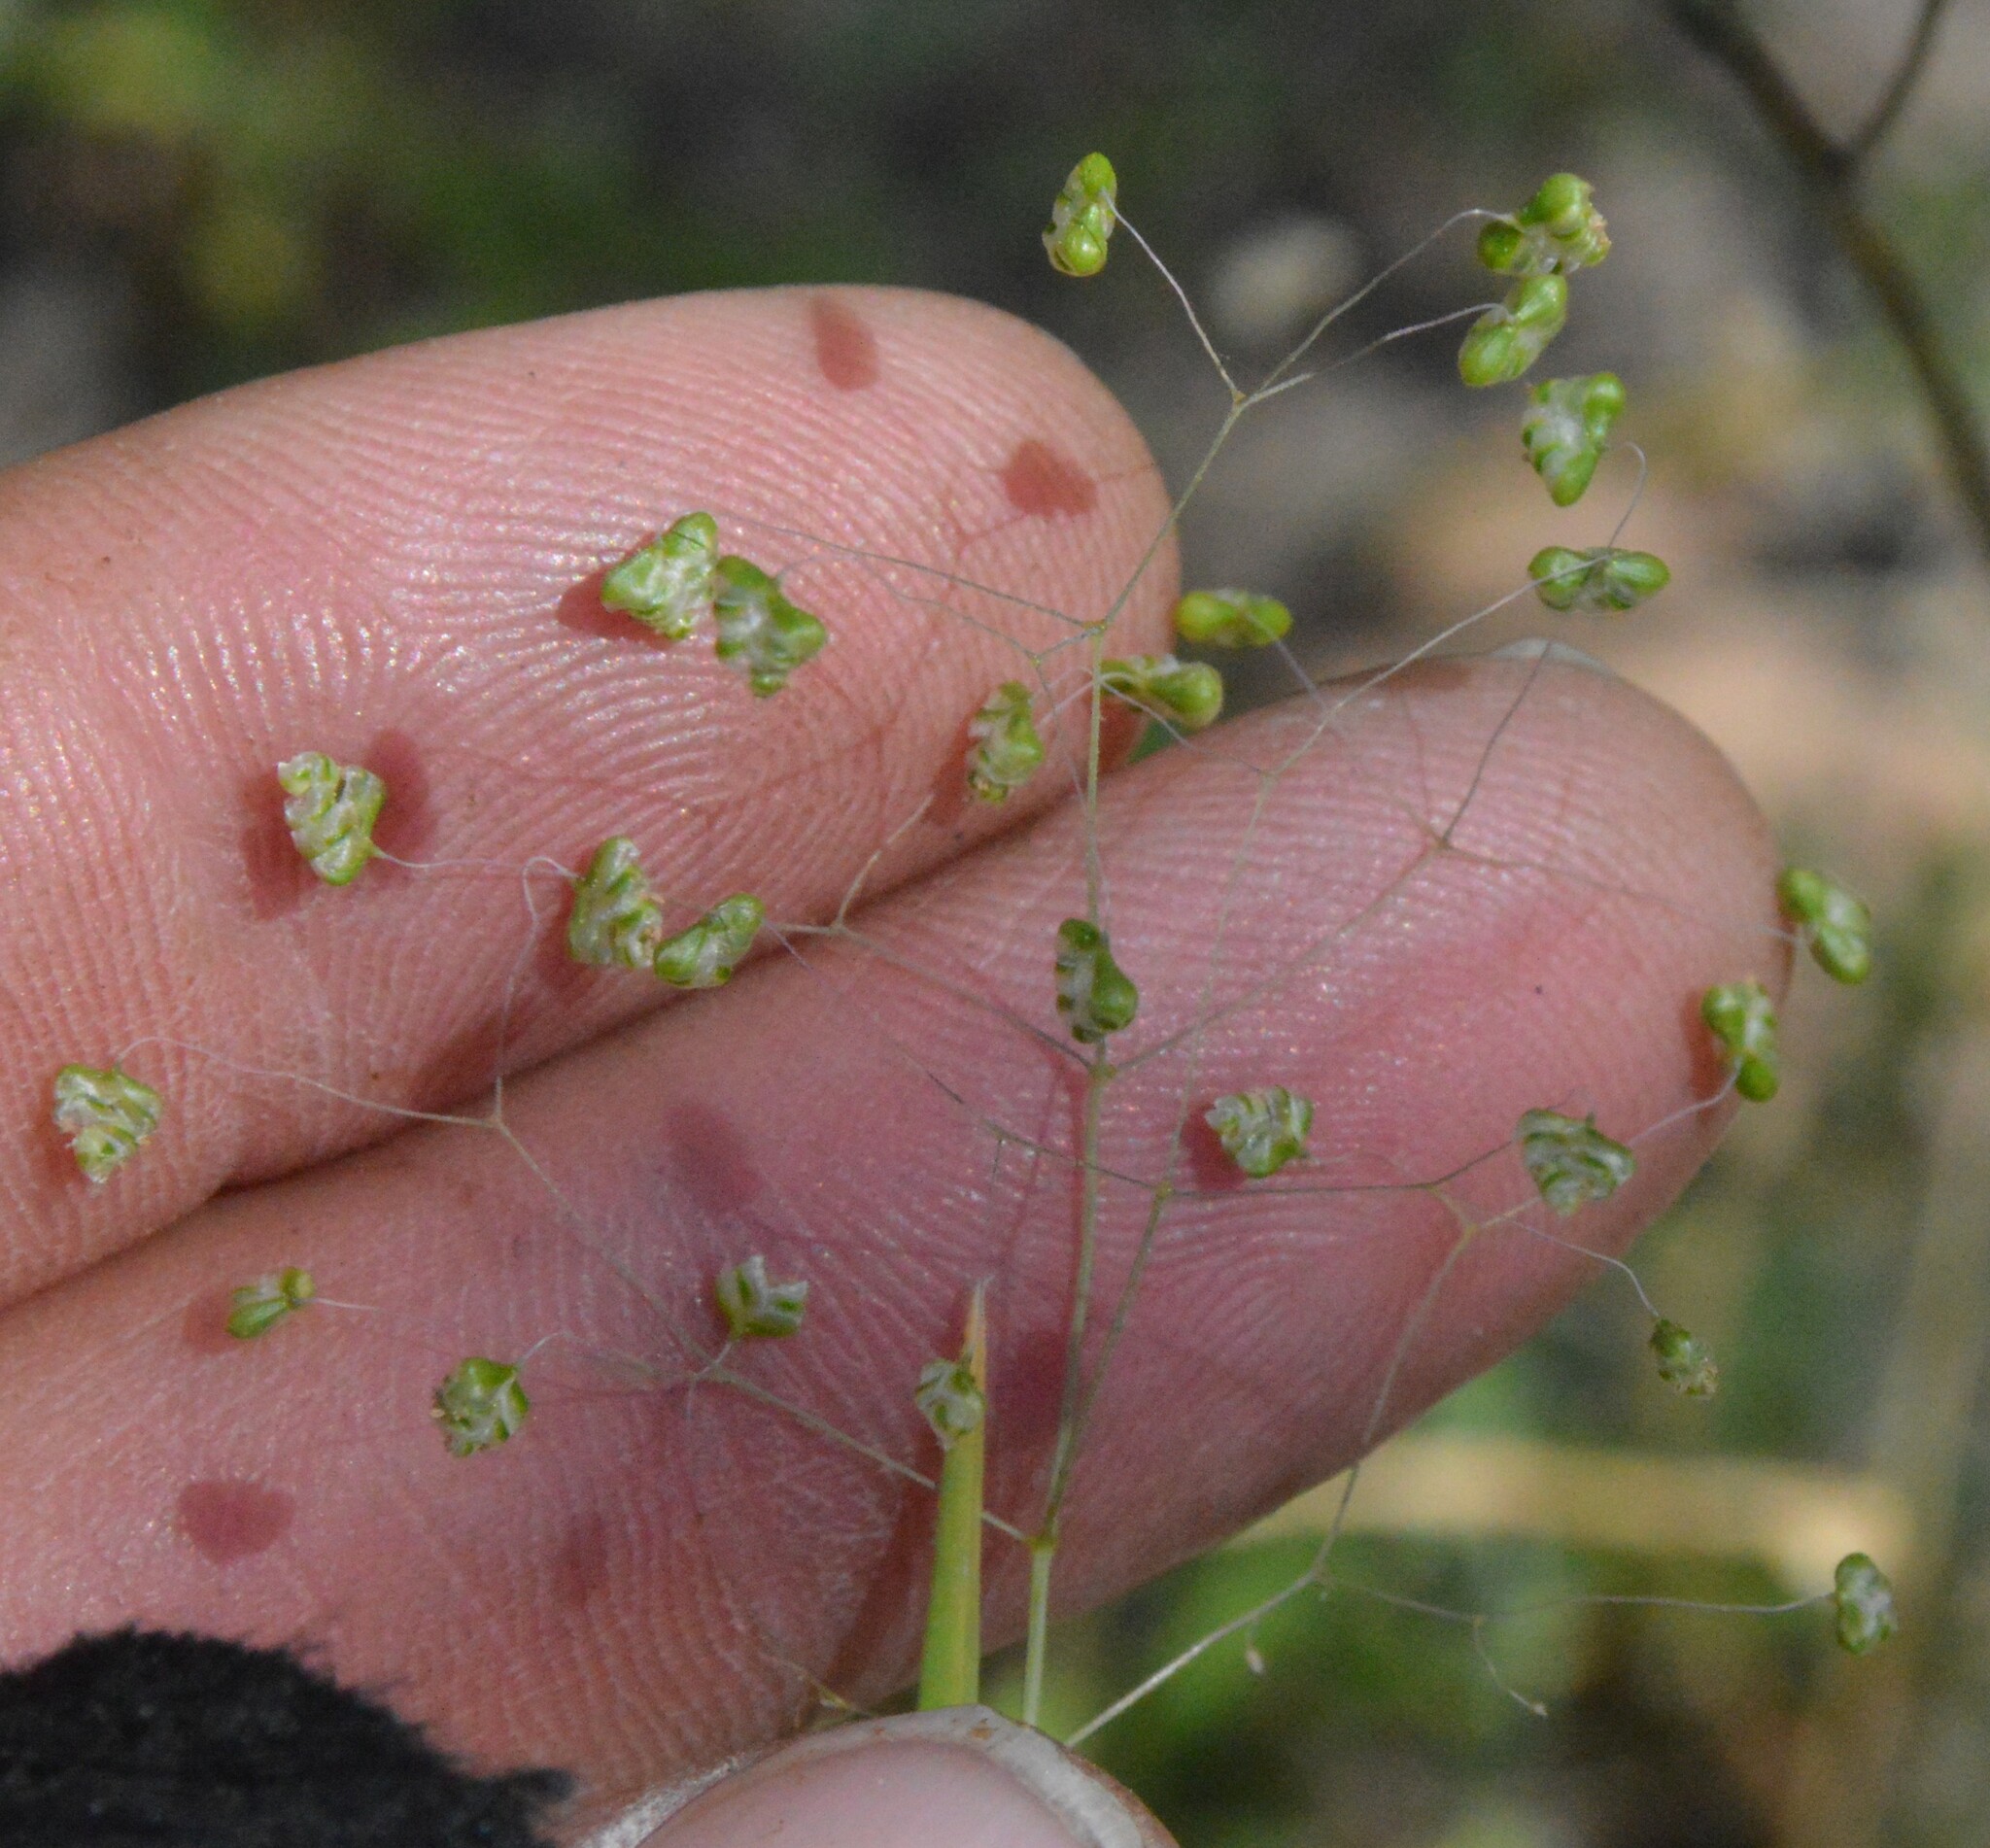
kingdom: Plantae
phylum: Tracheophyta
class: Liliopsida
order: Poales
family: Poaceae
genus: Briza
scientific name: Briza minor
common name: Lesser quaking-grass
